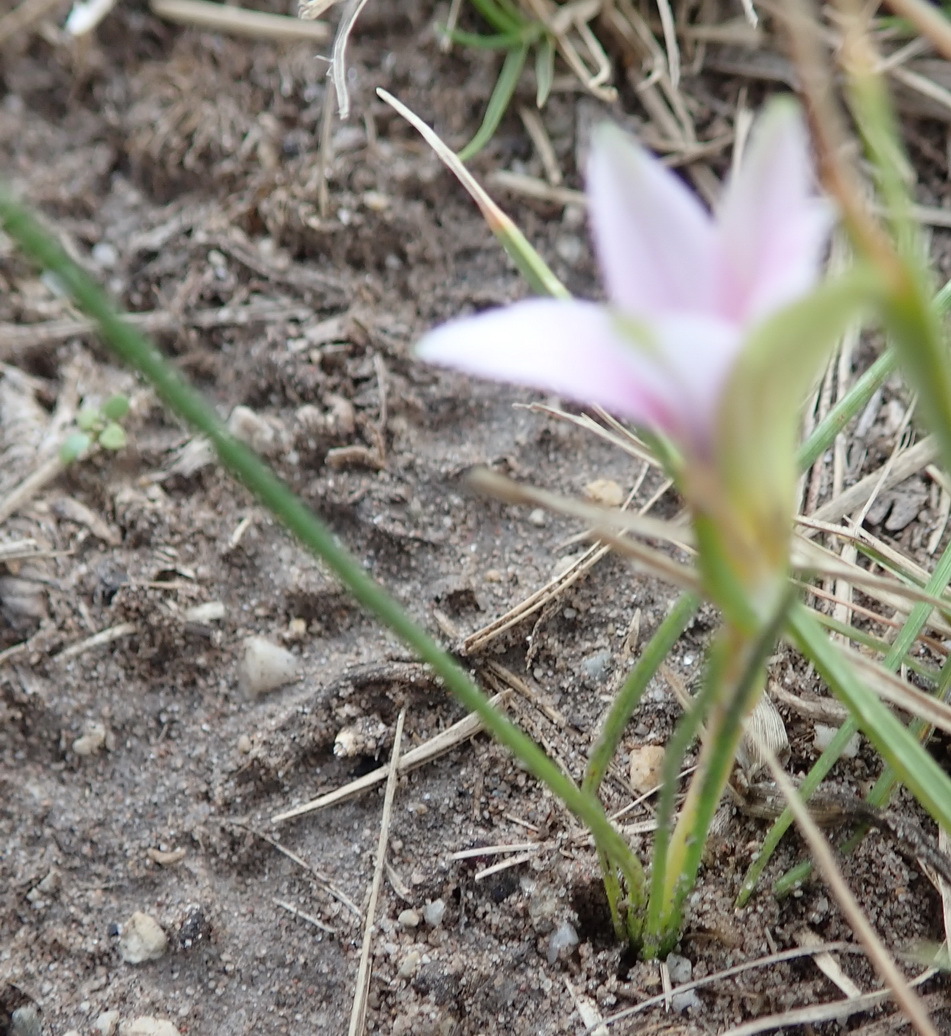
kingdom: Plantae
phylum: Tracheophyta
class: Liliopsida
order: Asparagales
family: Iridaceae
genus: Romulea
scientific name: Romulea rosea
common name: Oniongrass
